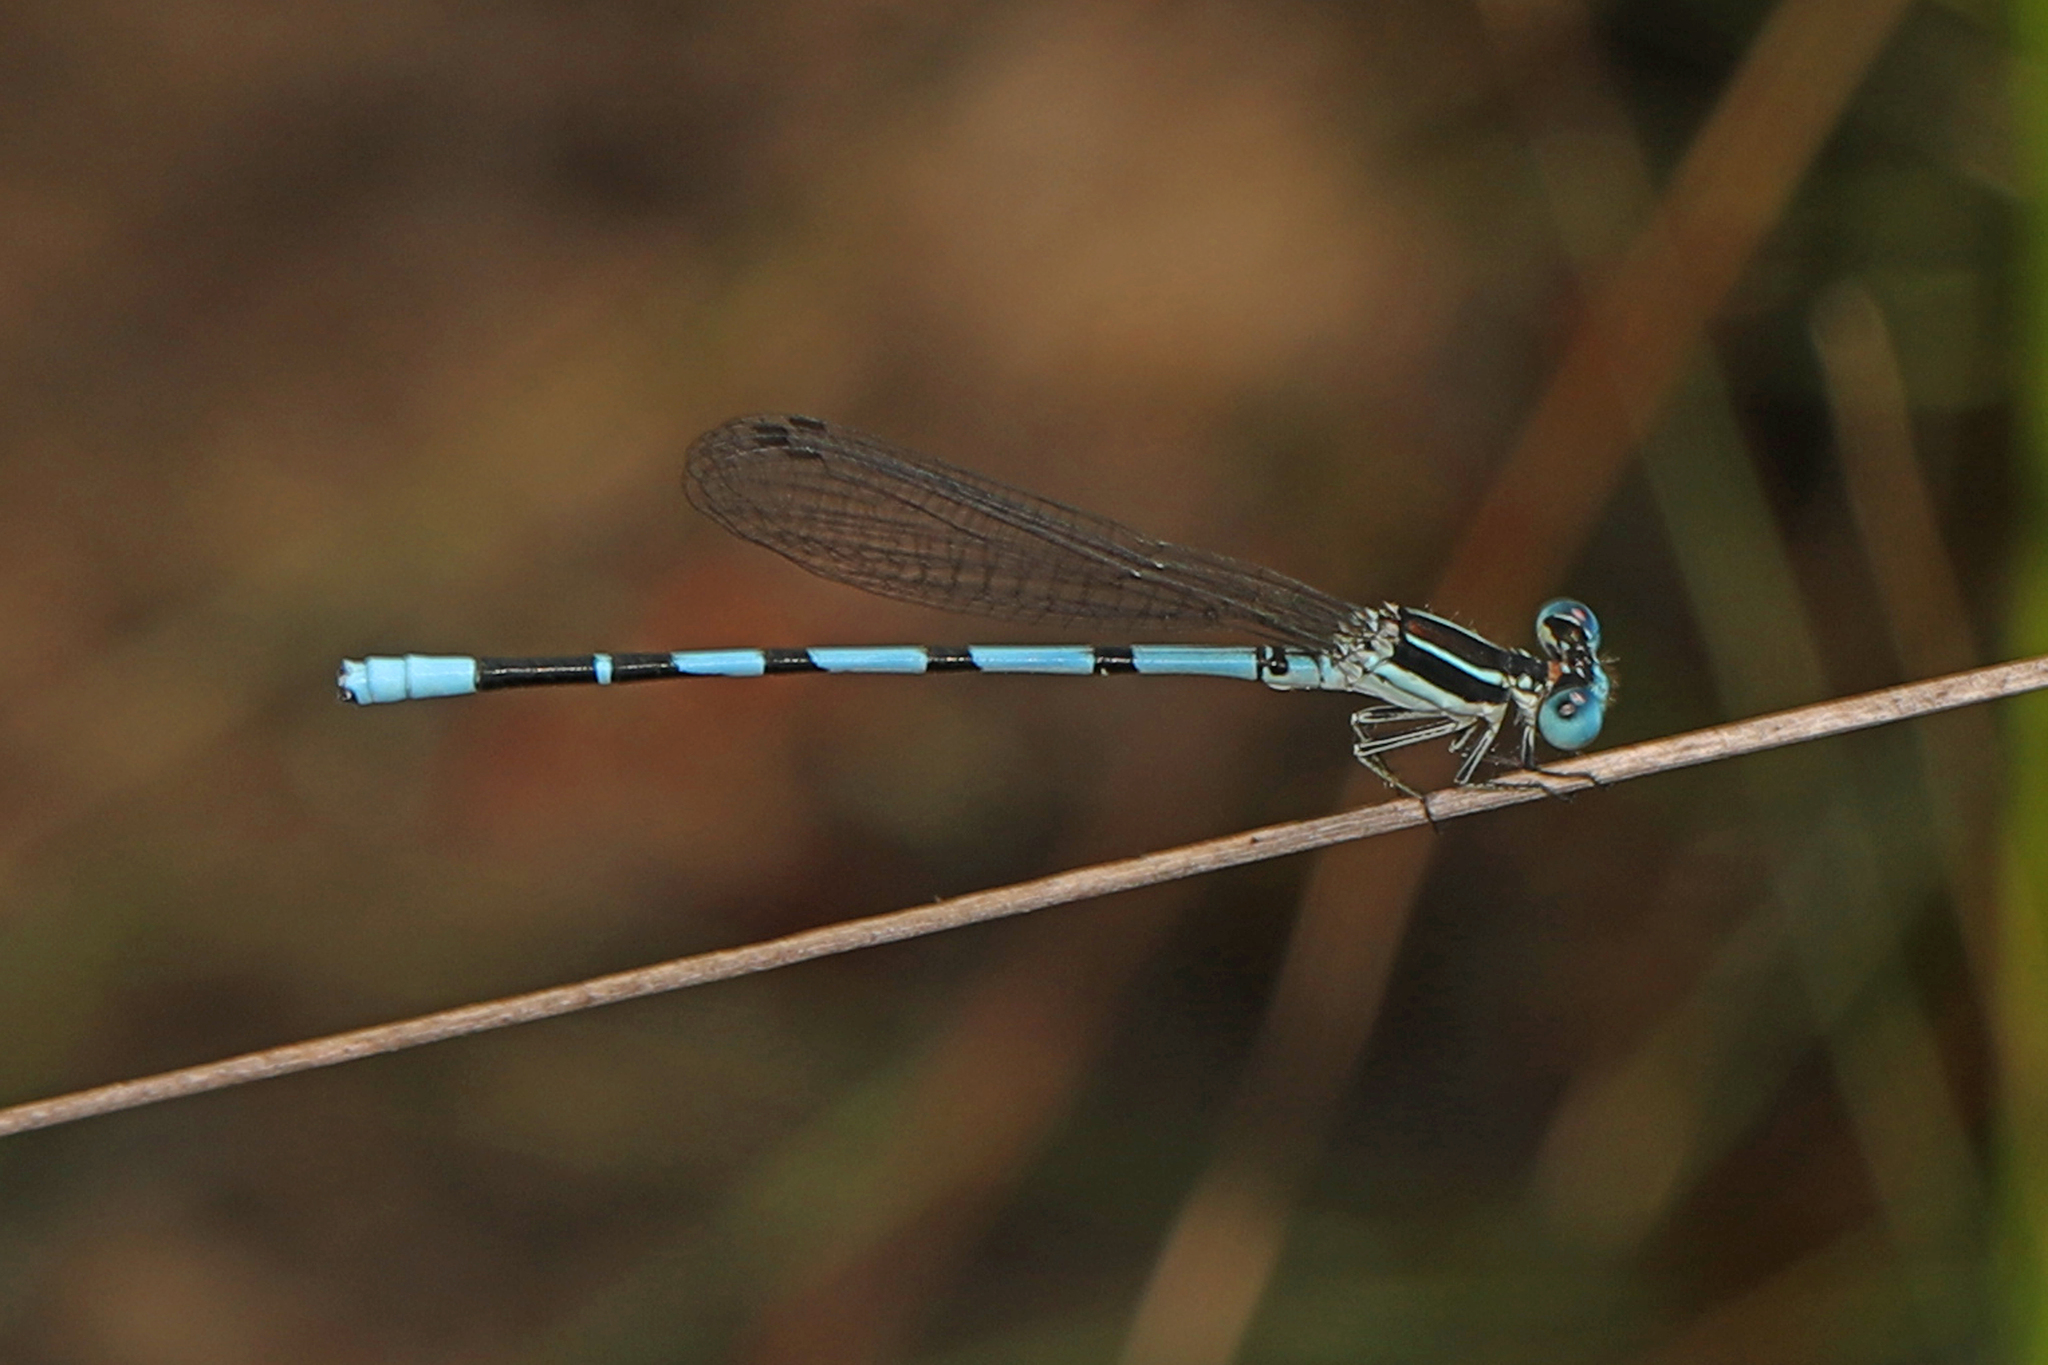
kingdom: Animalia
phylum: Arthropoda
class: Insecta
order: Odonata
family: Coenagrionidae
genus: Argia
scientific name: Argia bipunctulata
